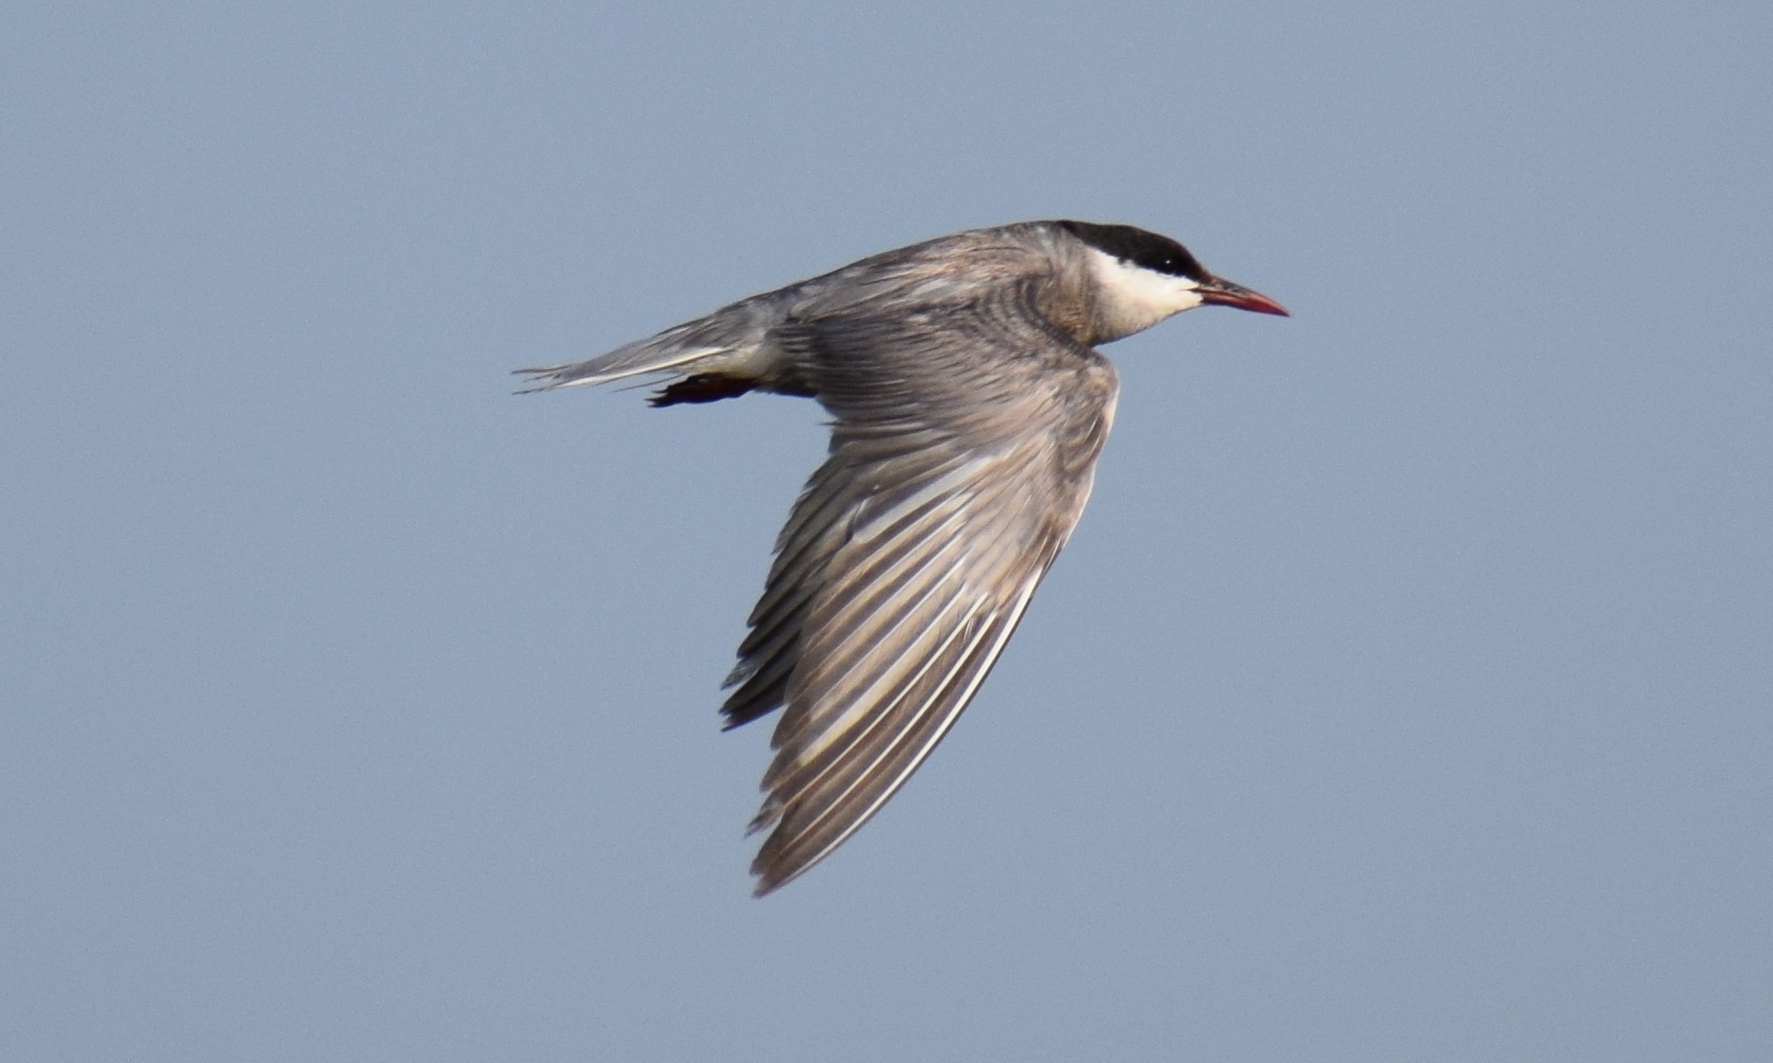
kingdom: Animalia
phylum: Chordata
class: Aves
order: Charadriiformes
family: Laridae
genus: Chlidonias
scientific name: Chlidonias hybrida
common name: Whiskered tern
